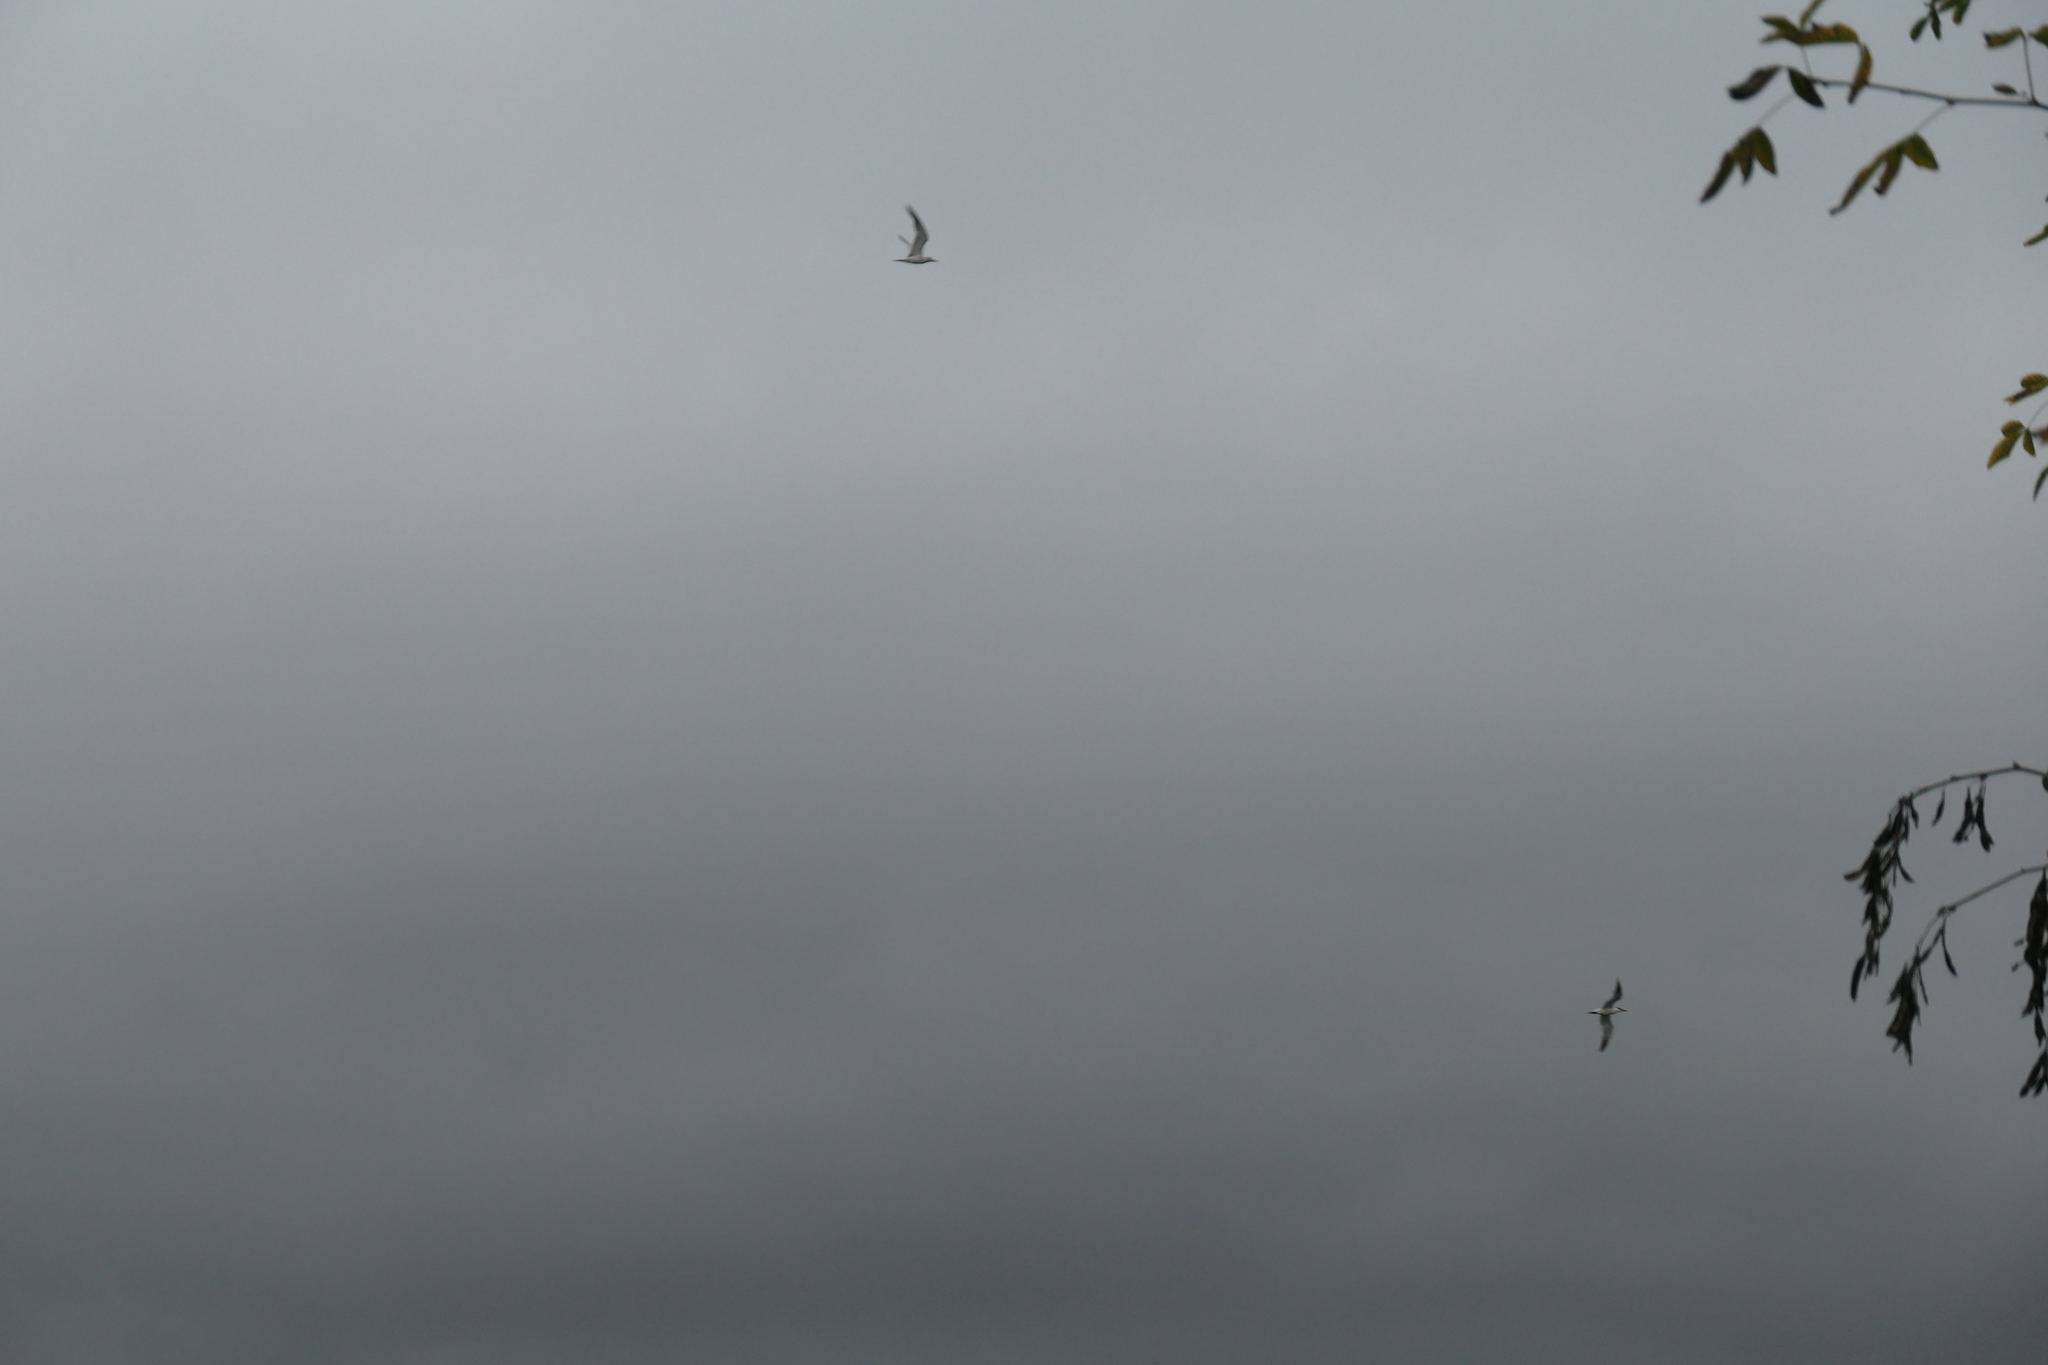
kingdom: Animalia
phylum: Chordata
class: Aves
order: Charadriiformes
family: Laridae
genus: Hydroprogne
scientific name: Hydroprogne caspia
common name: Caspian tern
